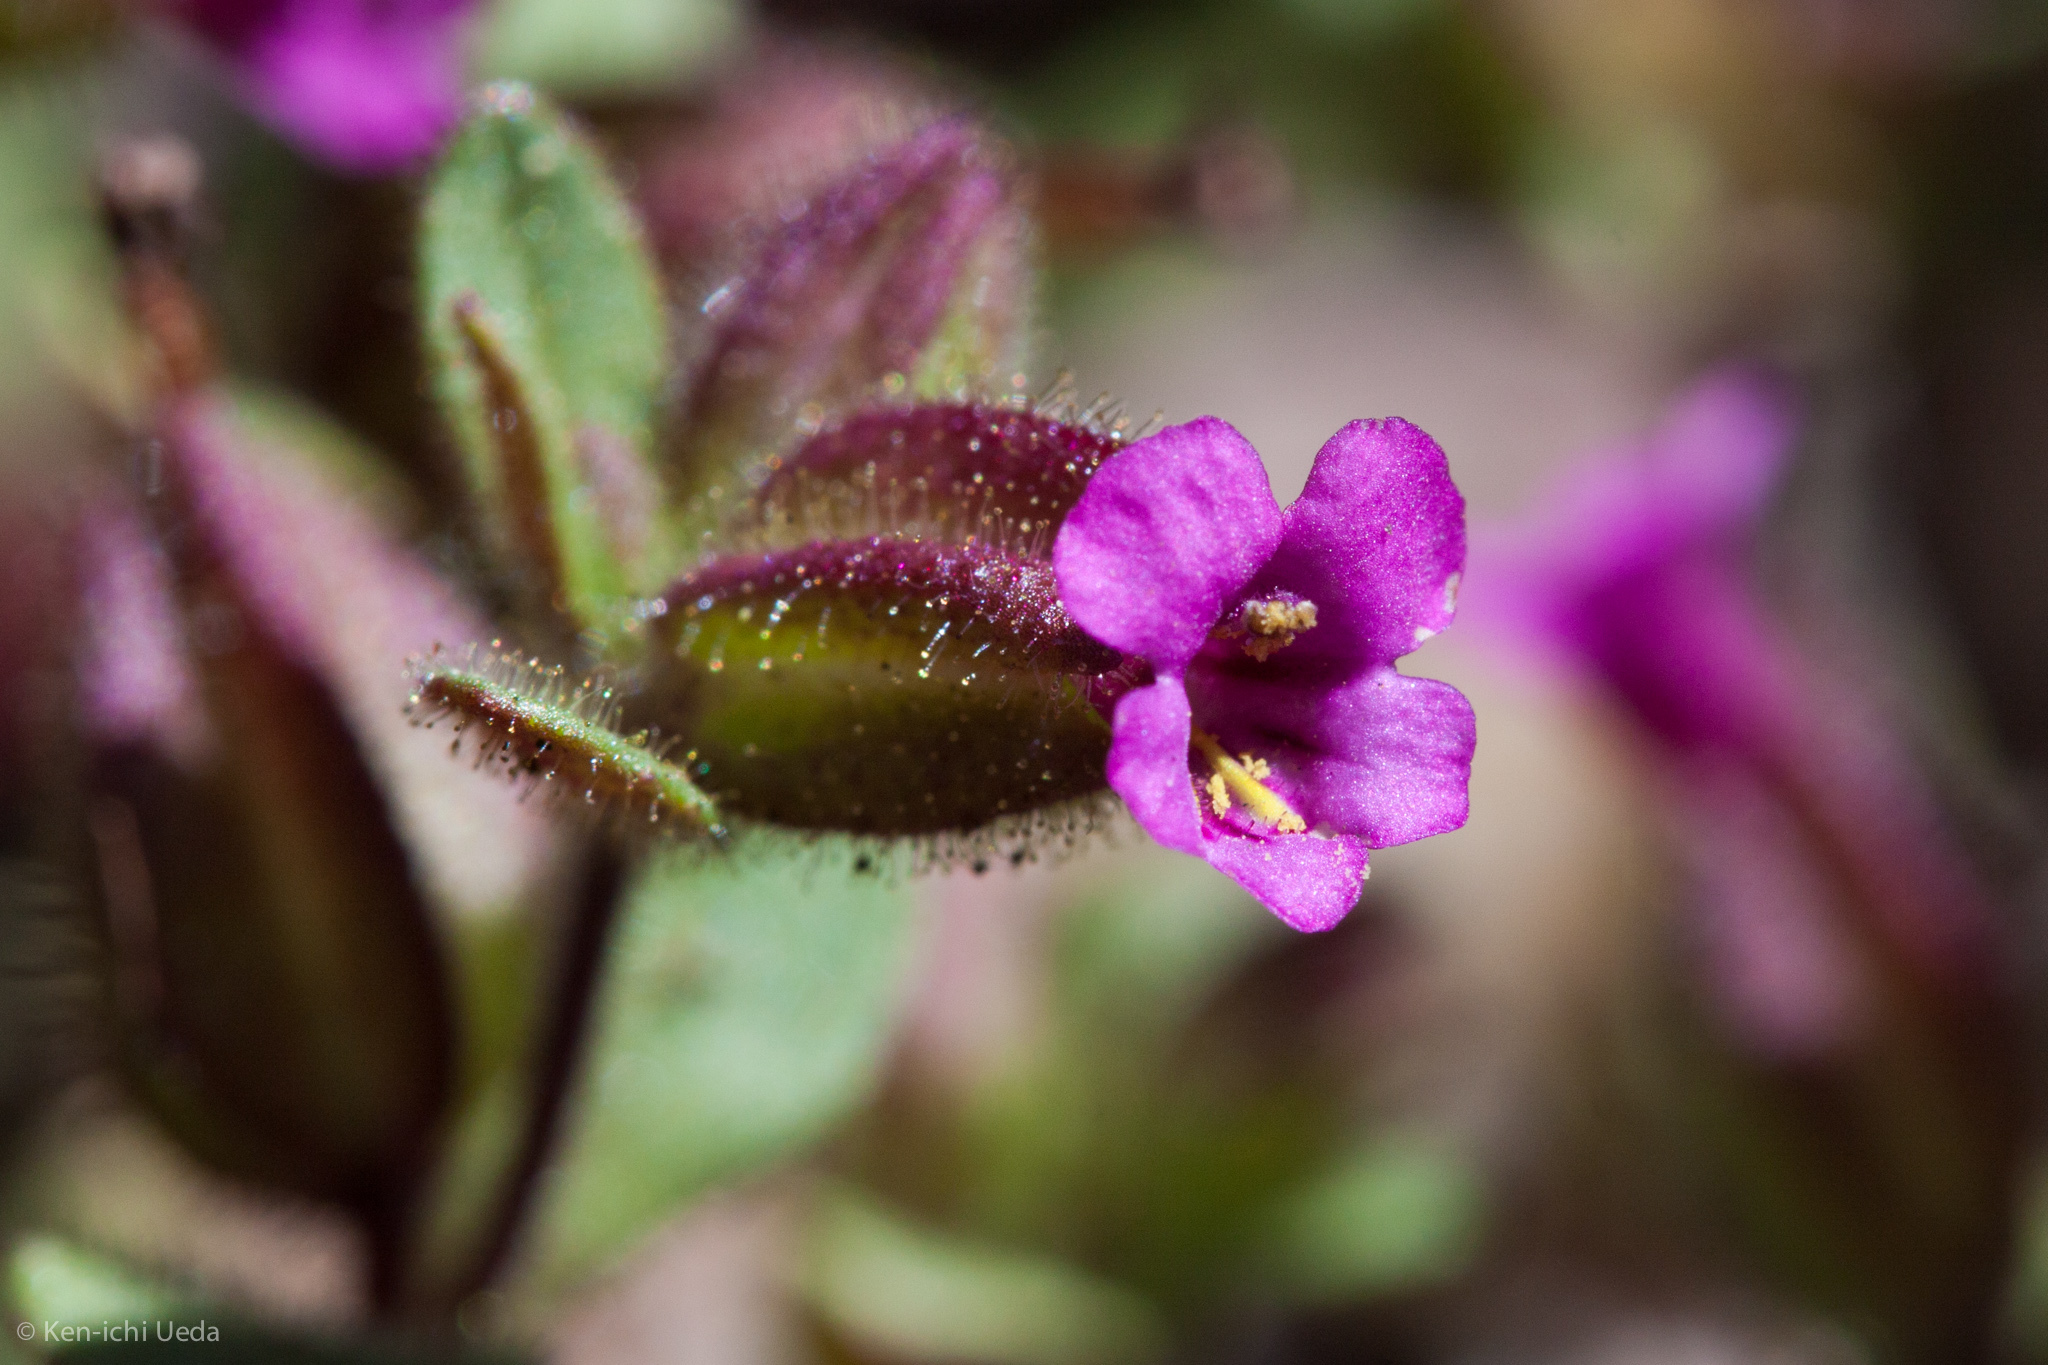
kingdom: Plantae
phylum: Tracheophyta
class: Magnoliopsida
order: Lamiales
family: Phrymaceae
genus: Diplacus
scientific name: Diplacus rattanii
